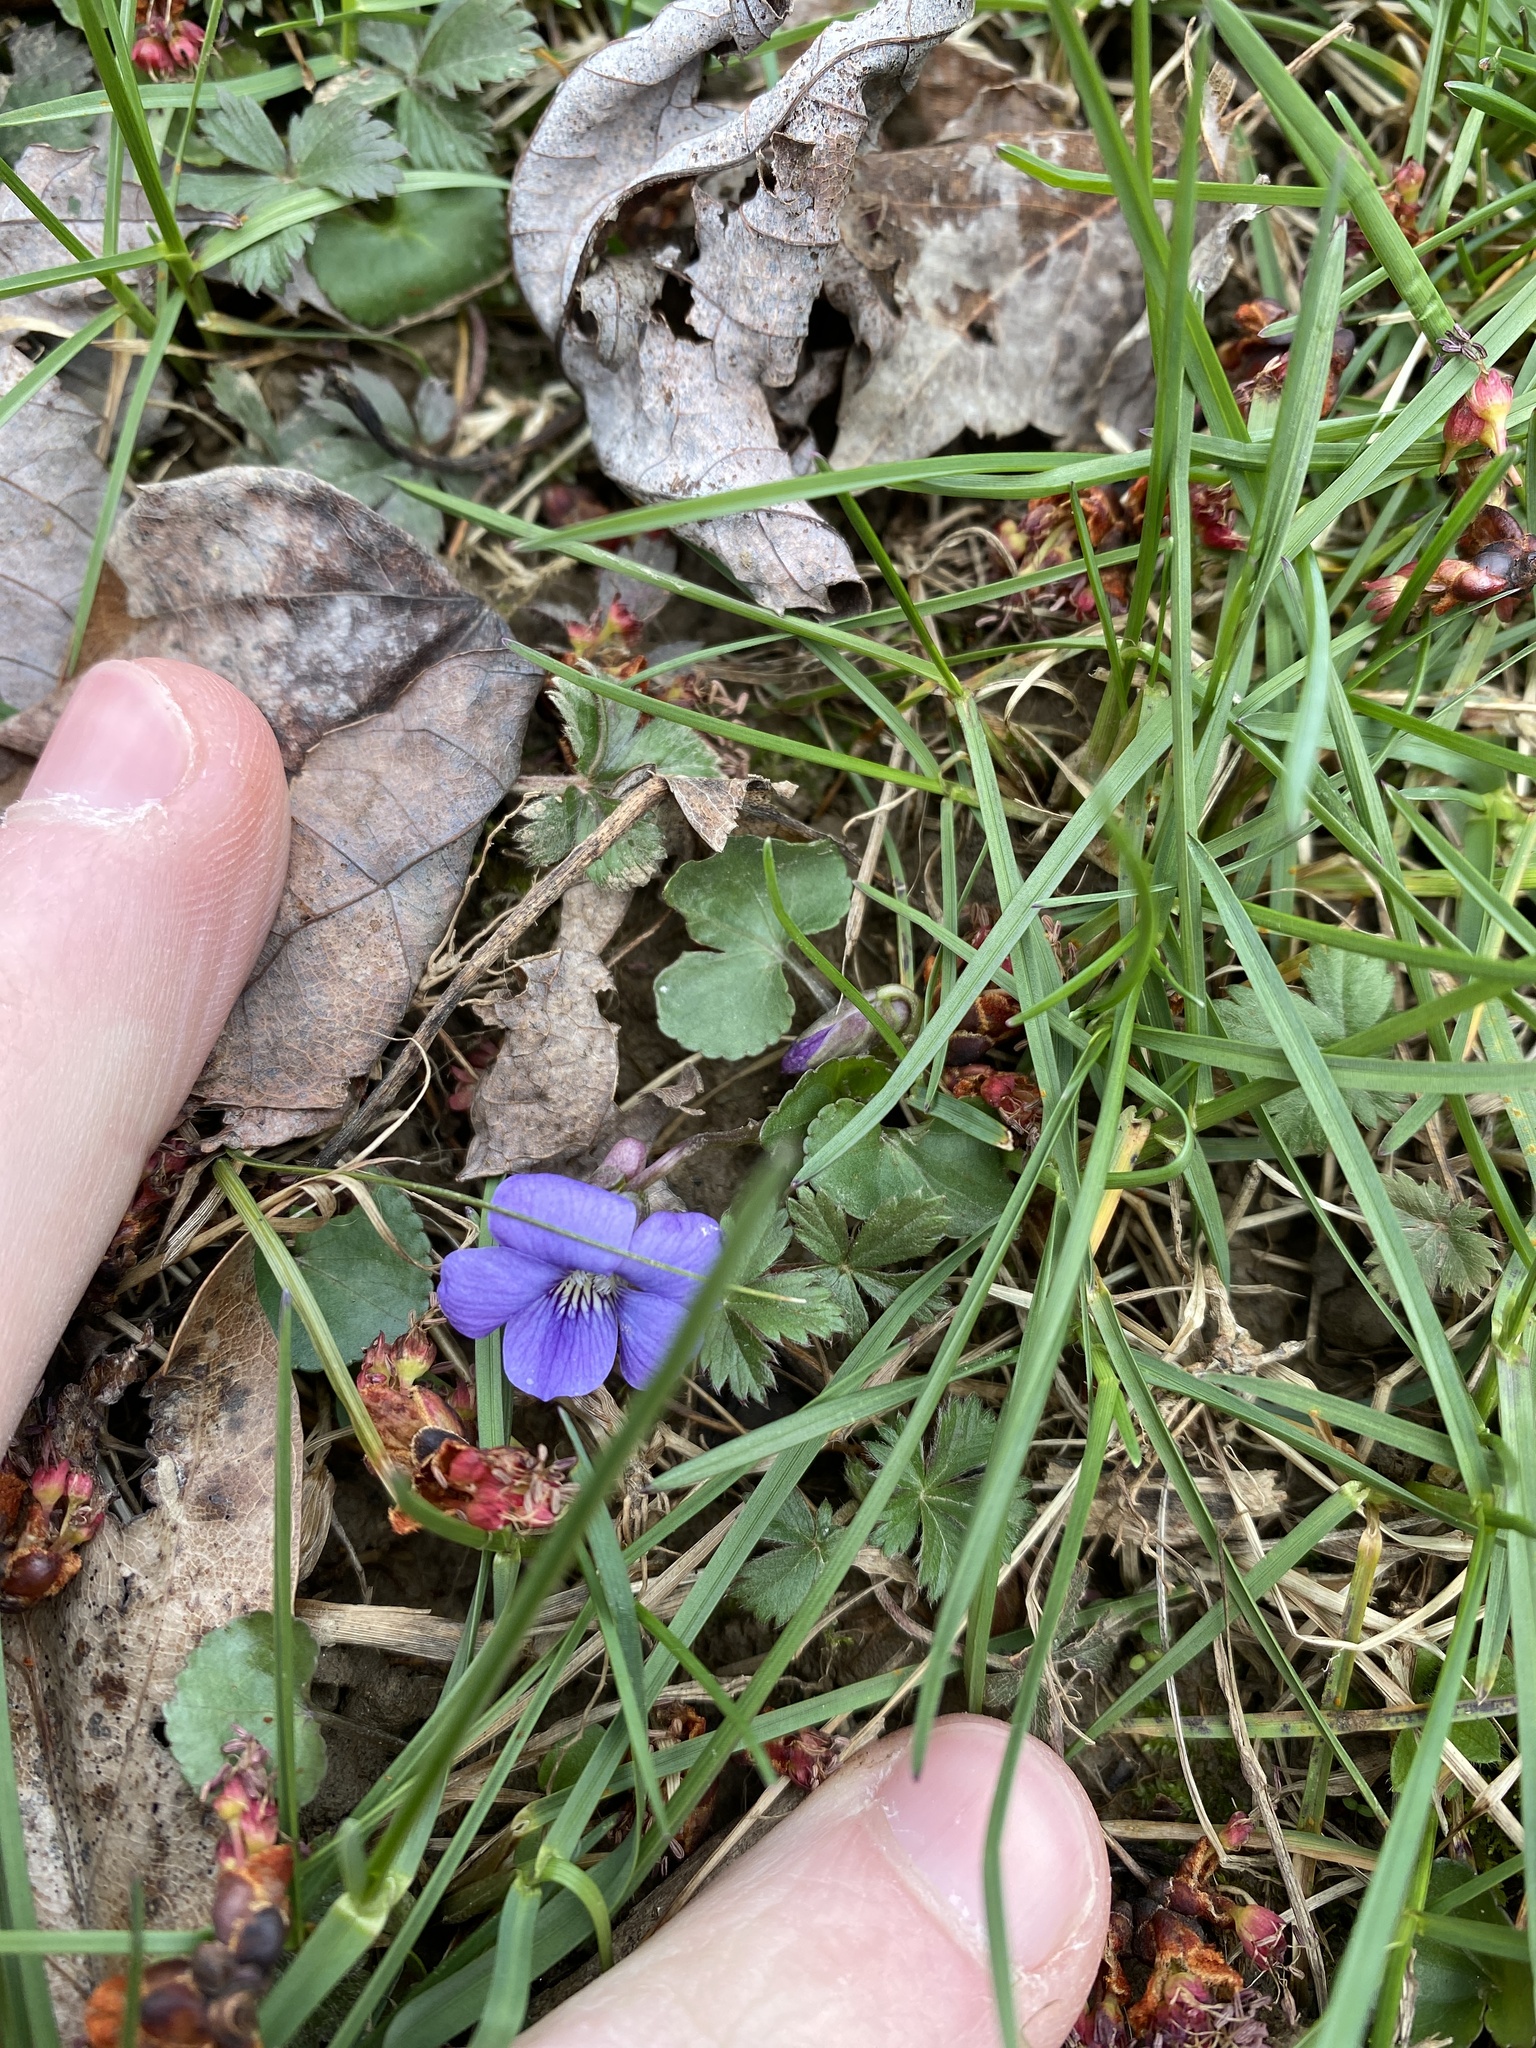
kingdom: Plantae
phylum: Tracheophyta
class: Magnoliopsida
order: Malpighiales
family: Violaceae
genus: Viola
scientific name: Viola sororia
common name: Dooryard violet
